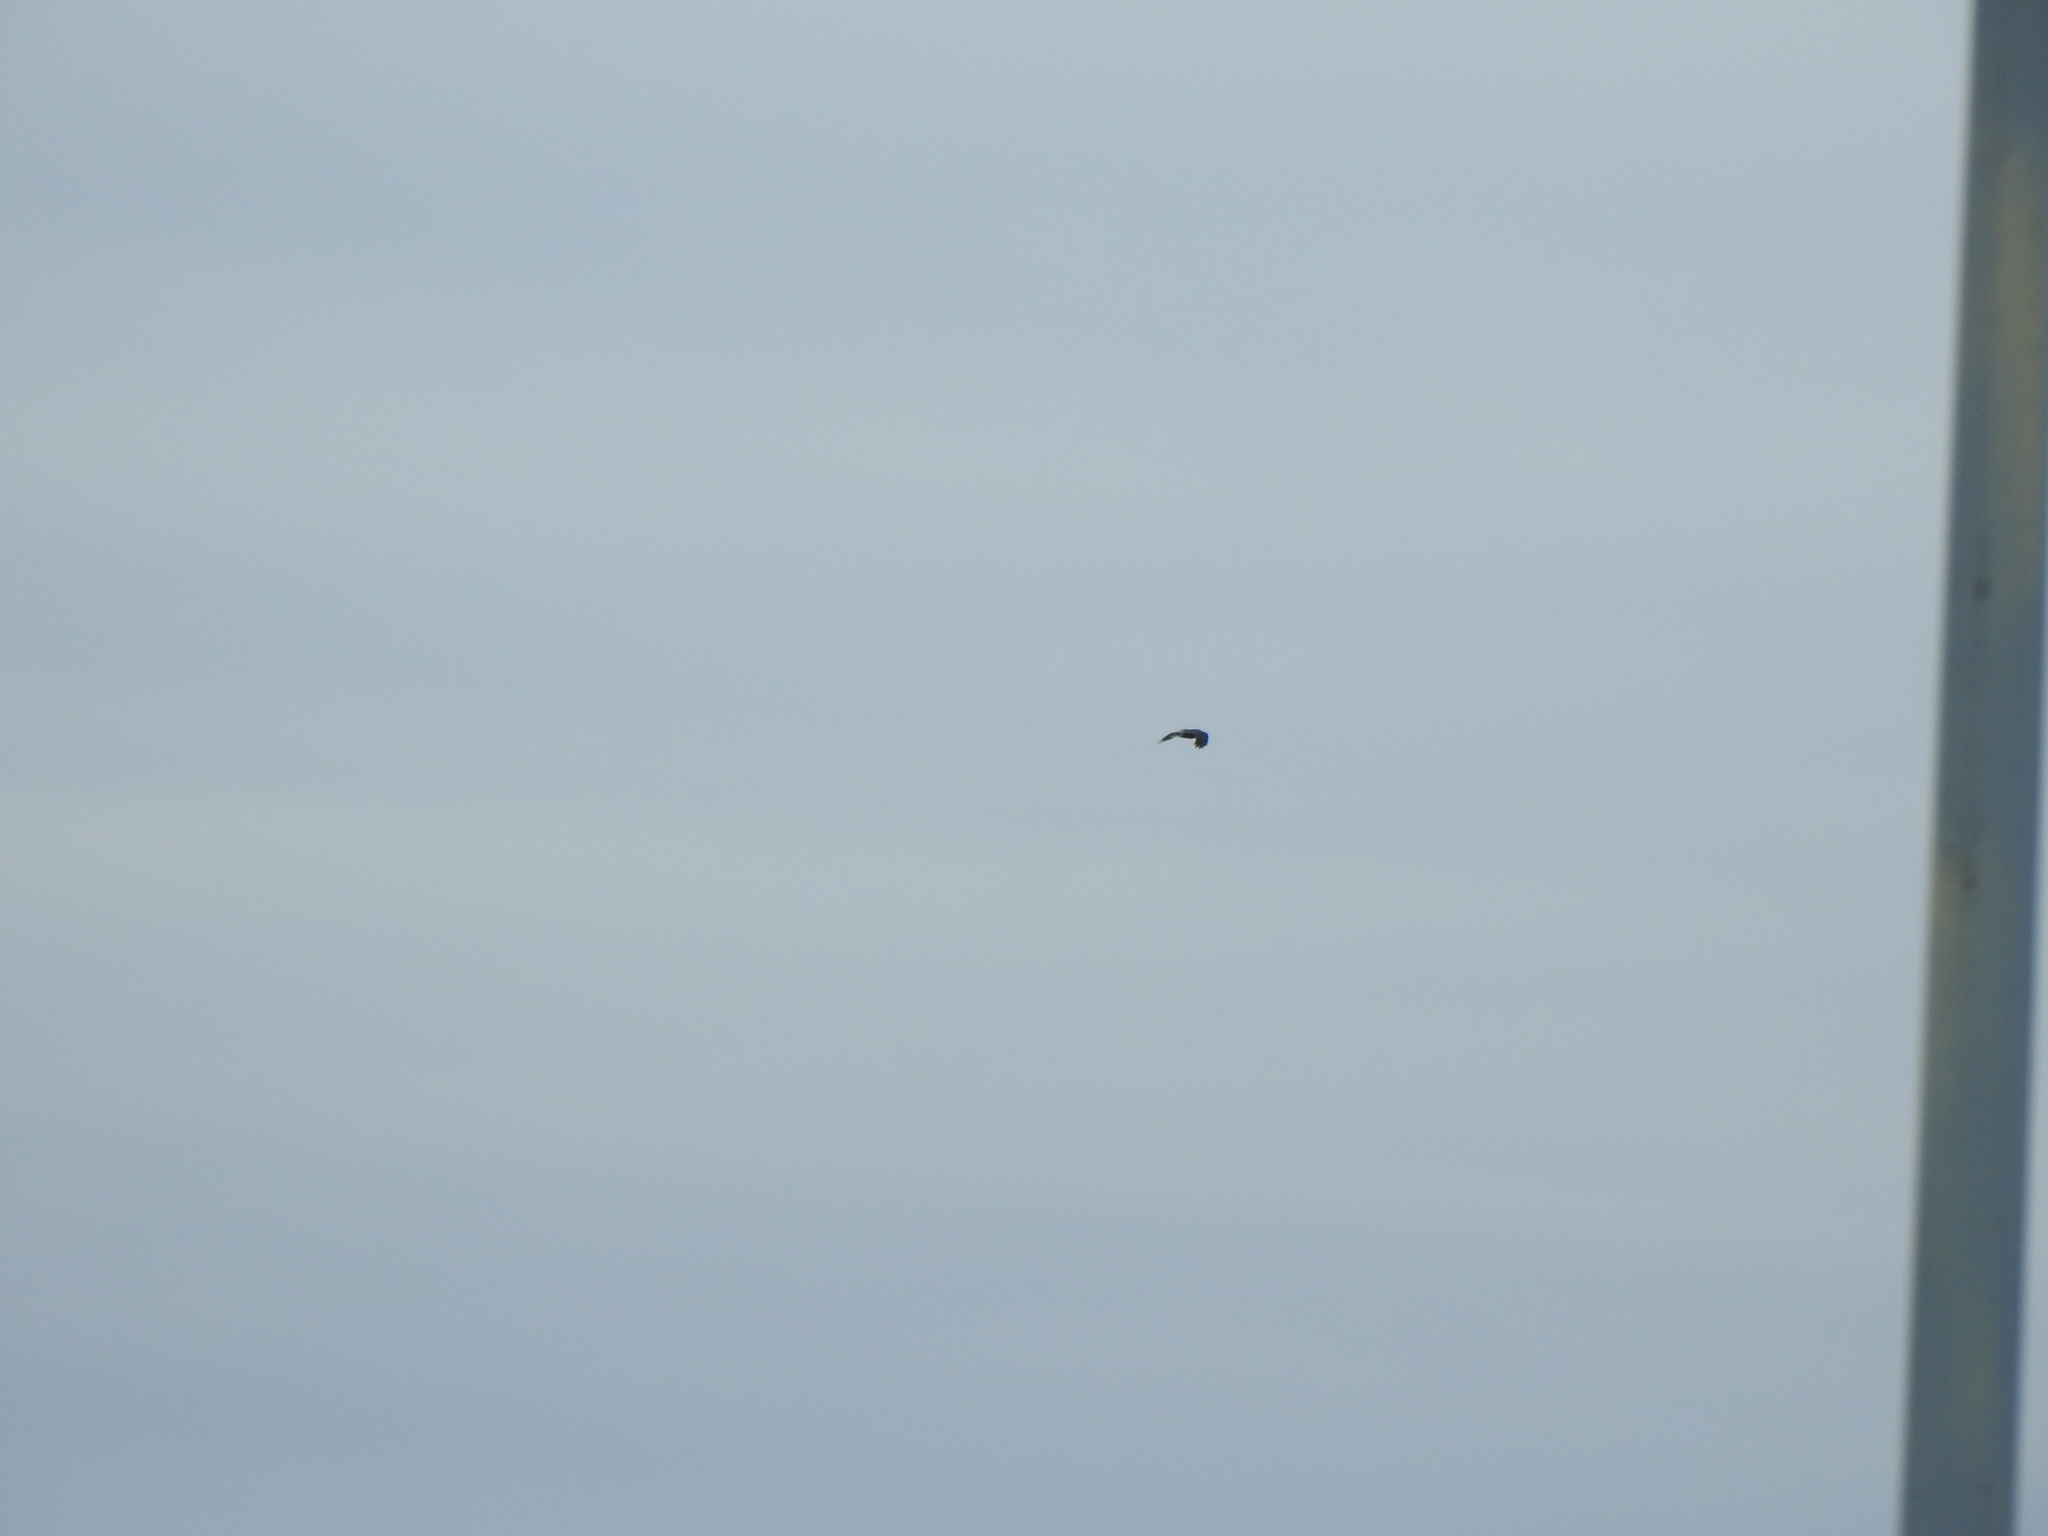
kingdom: Animalia
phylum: Chordata
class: Aves
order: Passeriformes
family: Corvidae
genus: Corvus
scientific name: Corvus corax
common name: Common raven
